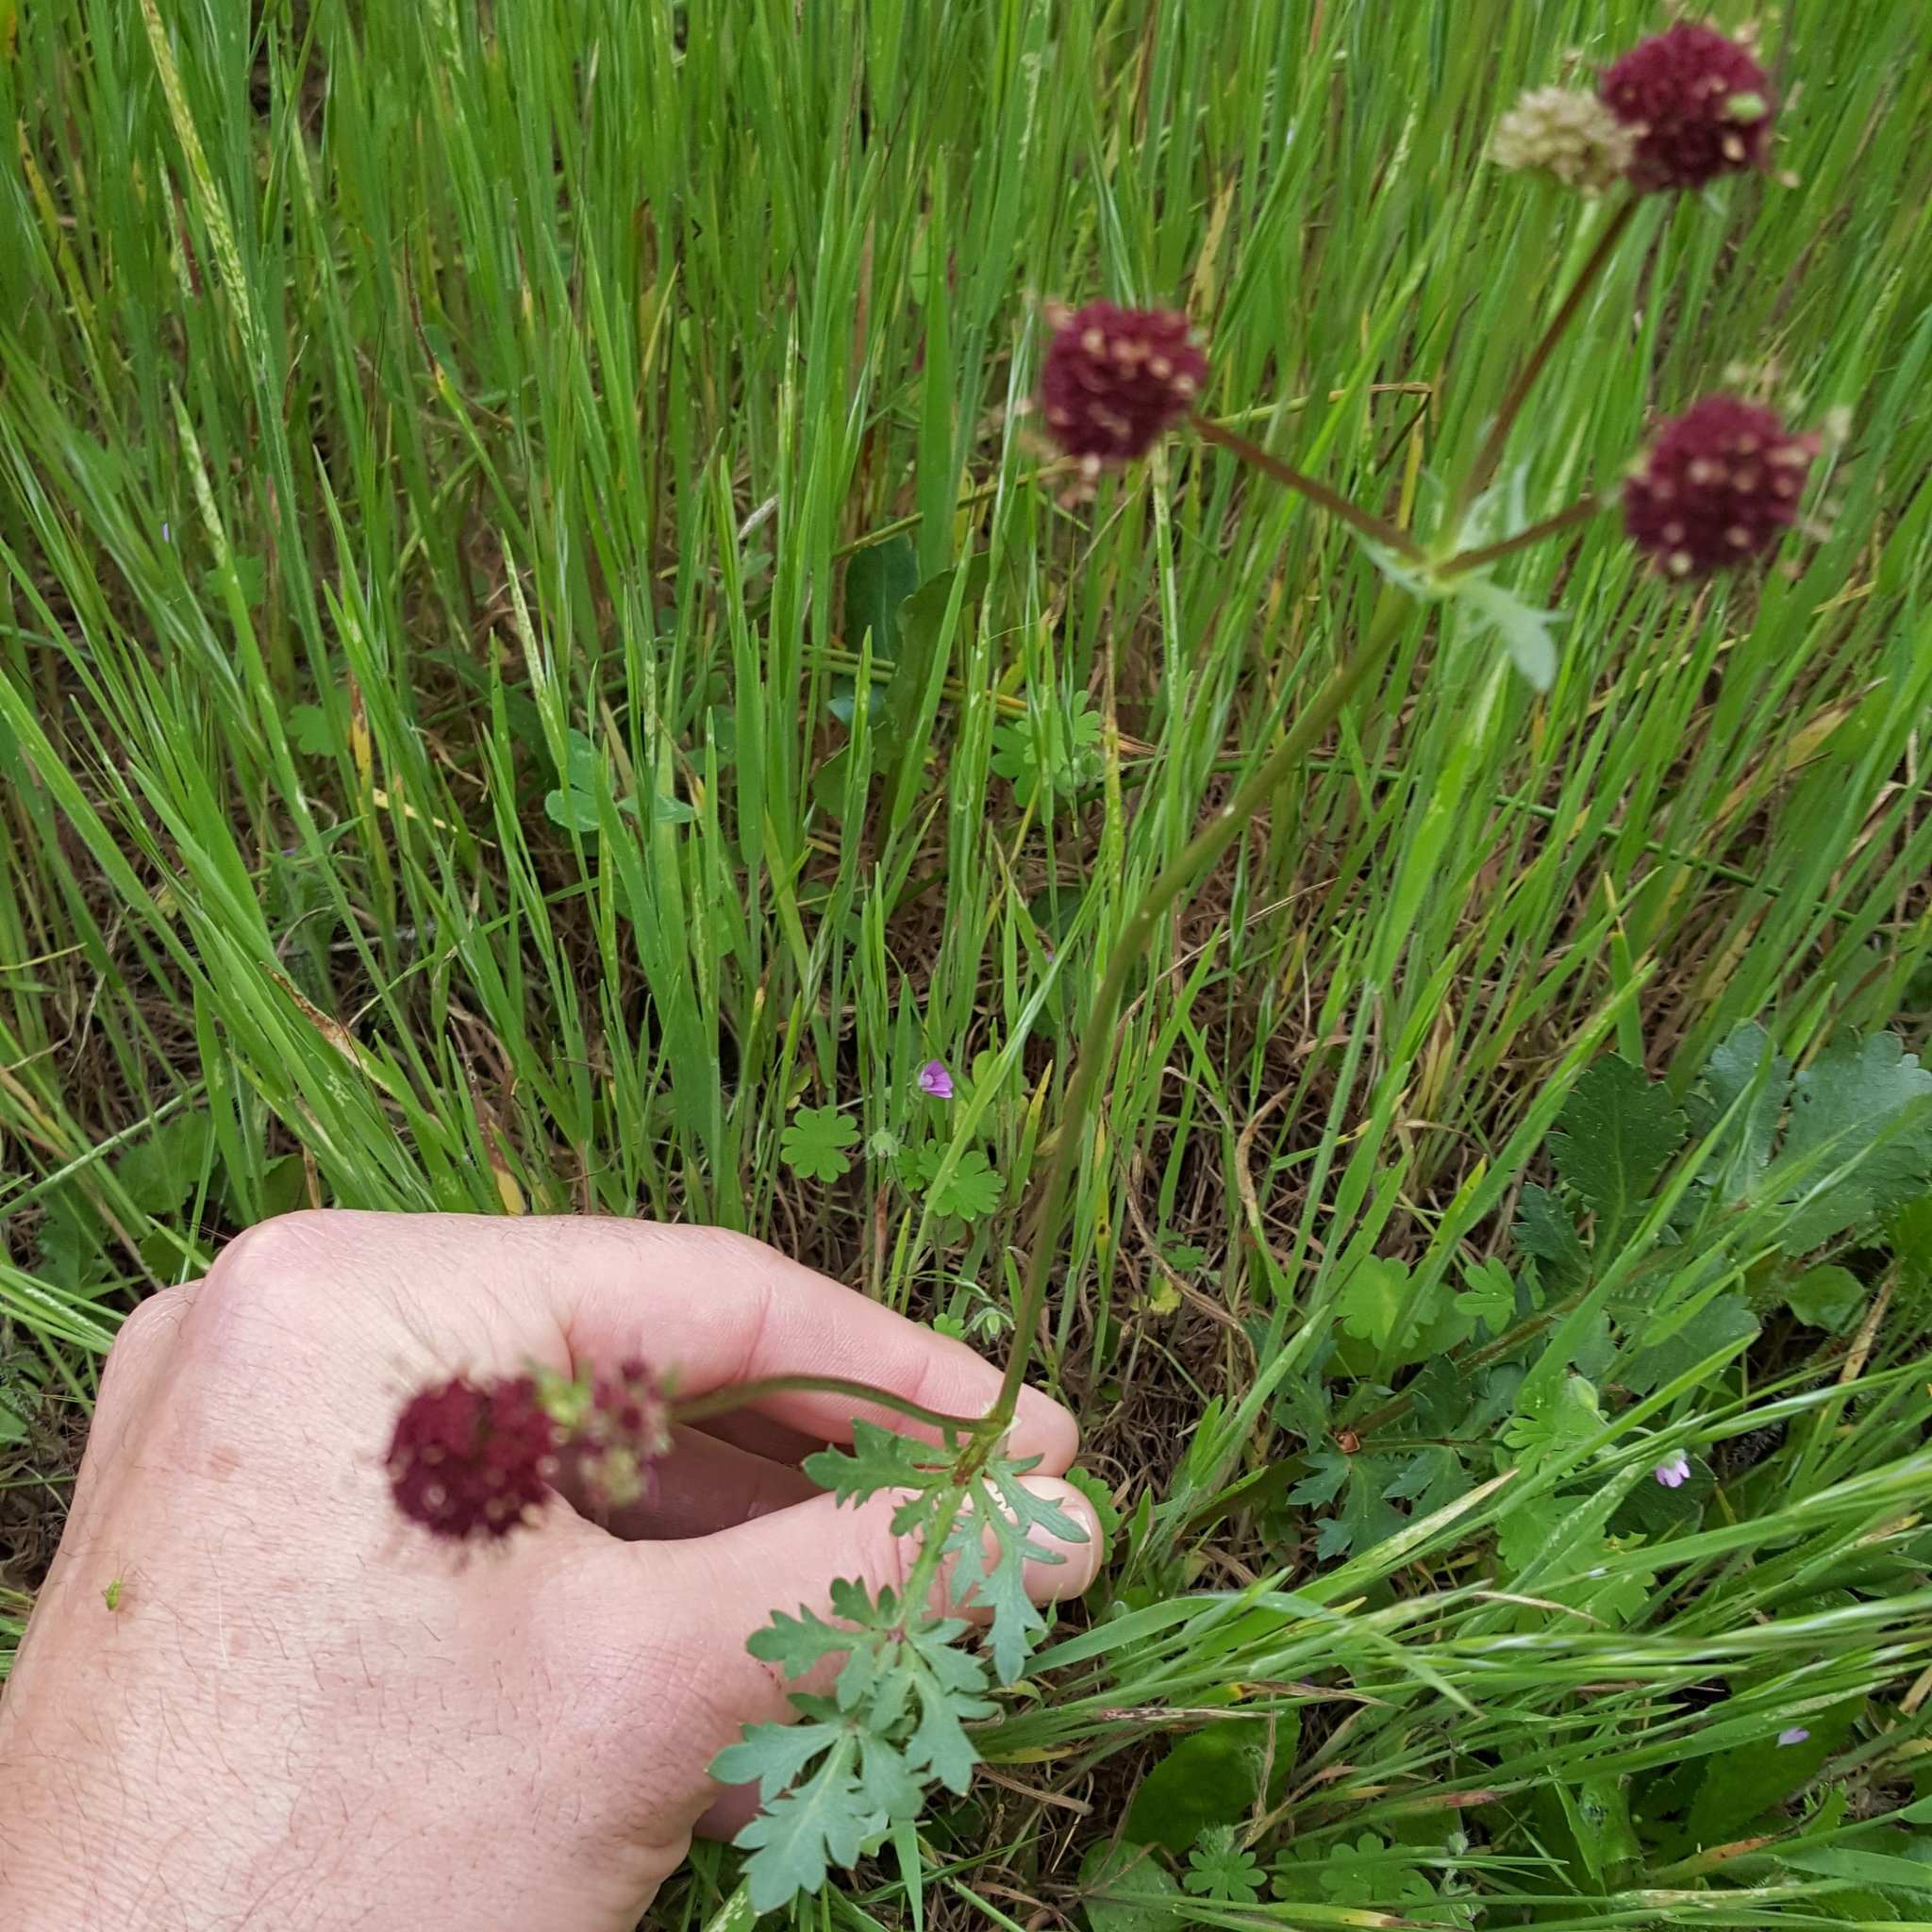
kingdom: Plantae
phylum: Tracheophyta
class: Magnoliopsida
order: Apiales
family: Apiaceae
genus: Sanicula
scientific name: Sanicula bipinnatifida
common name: Shoe-buttons
